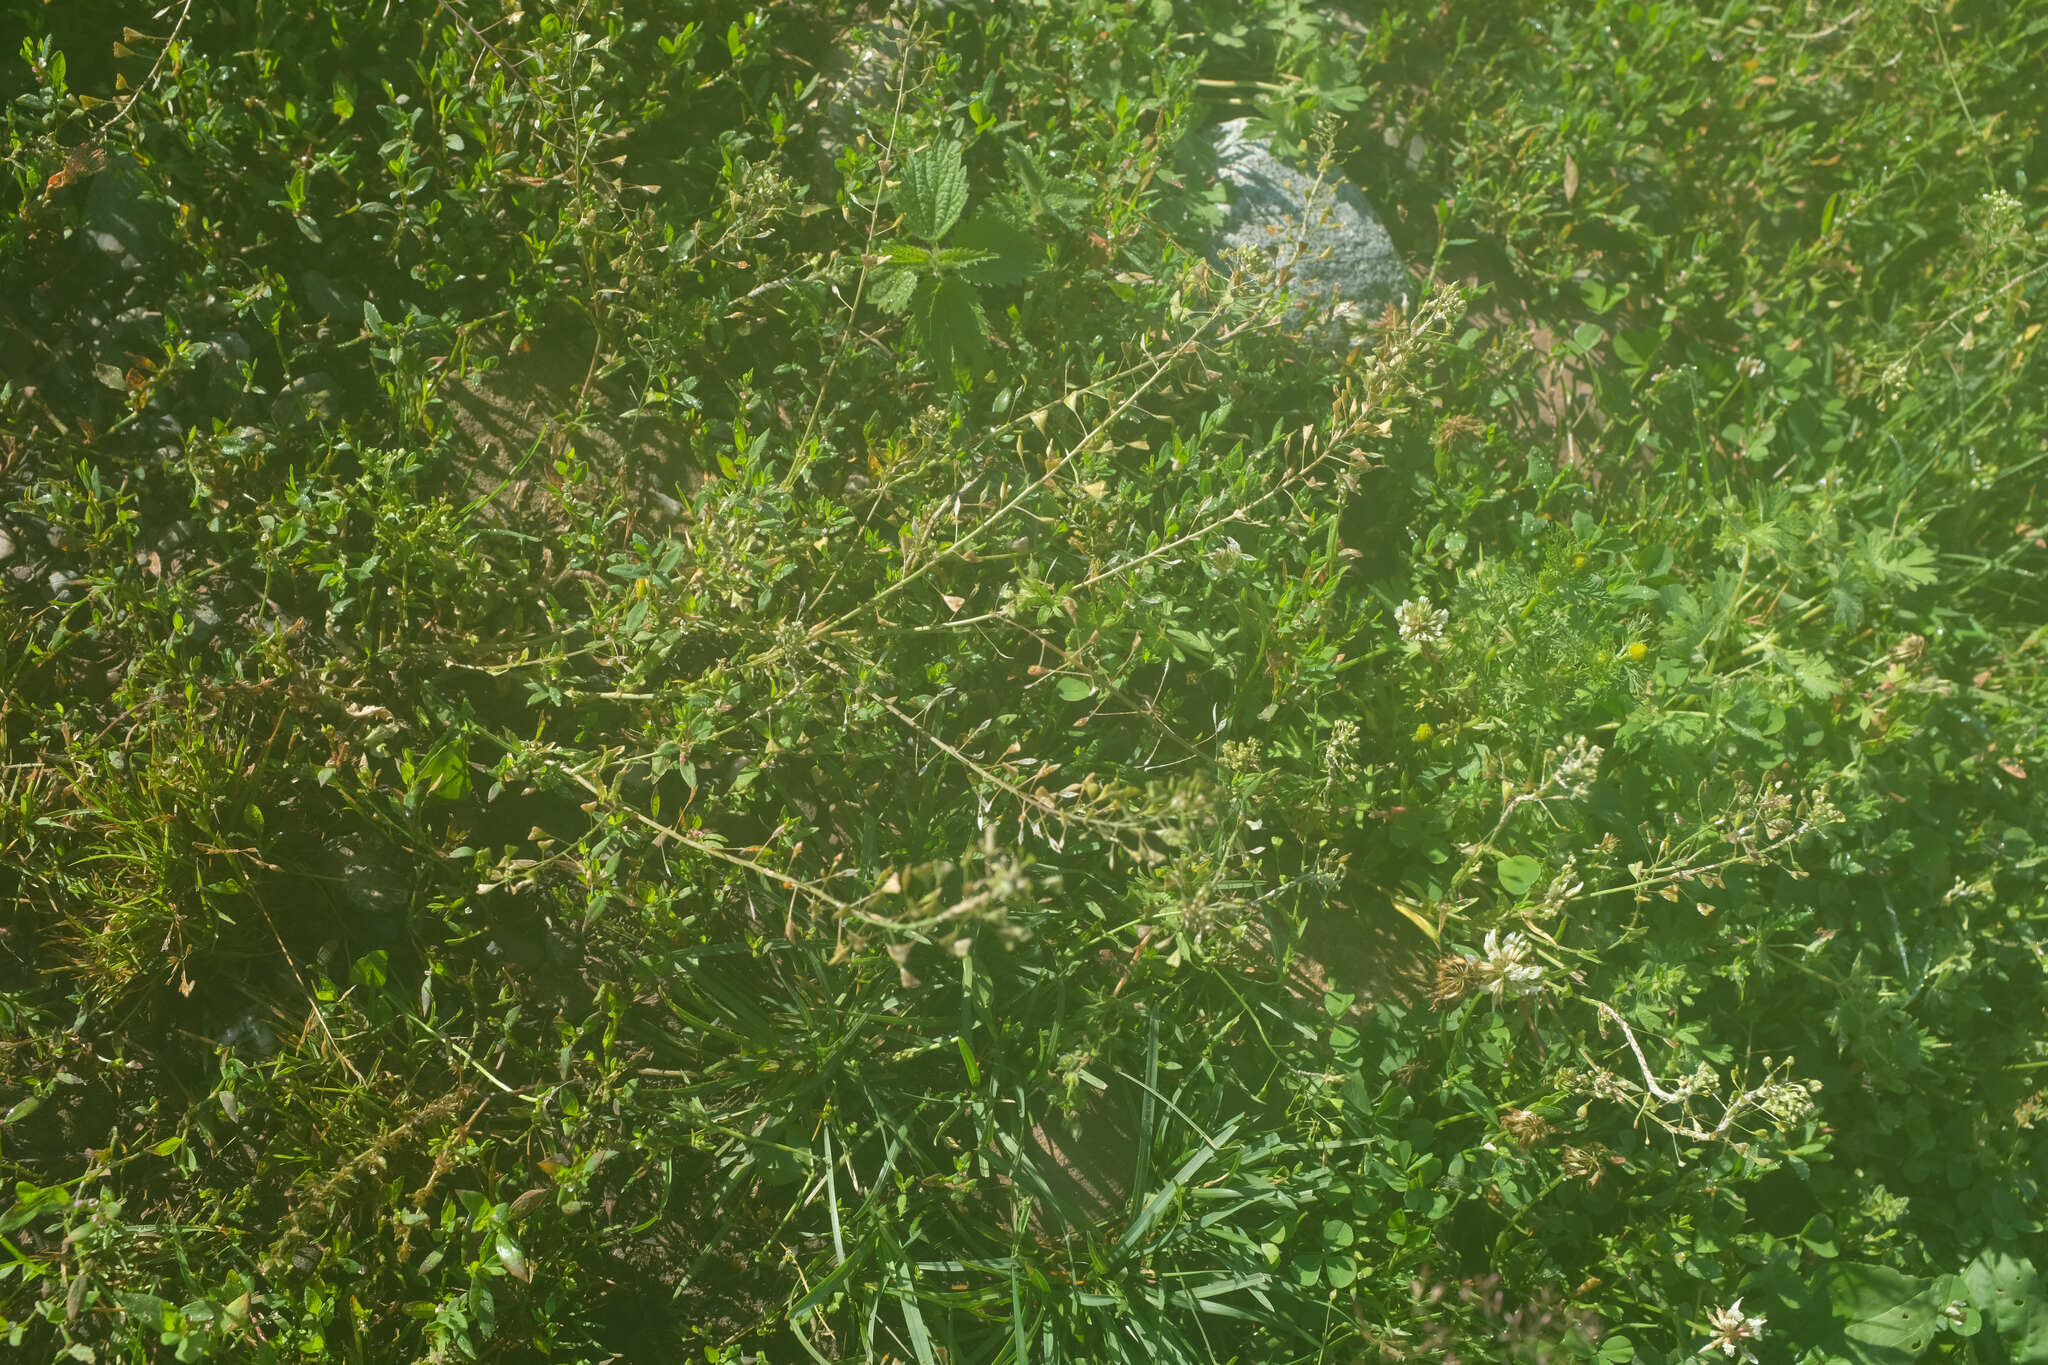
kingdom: Plantae
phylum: Tracheophyta
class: Magnoliopsida
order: Brassicales
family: Brassicaceae
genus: Capsella
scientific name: Capsella bursa-pastoris
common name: Shepherd's purse
